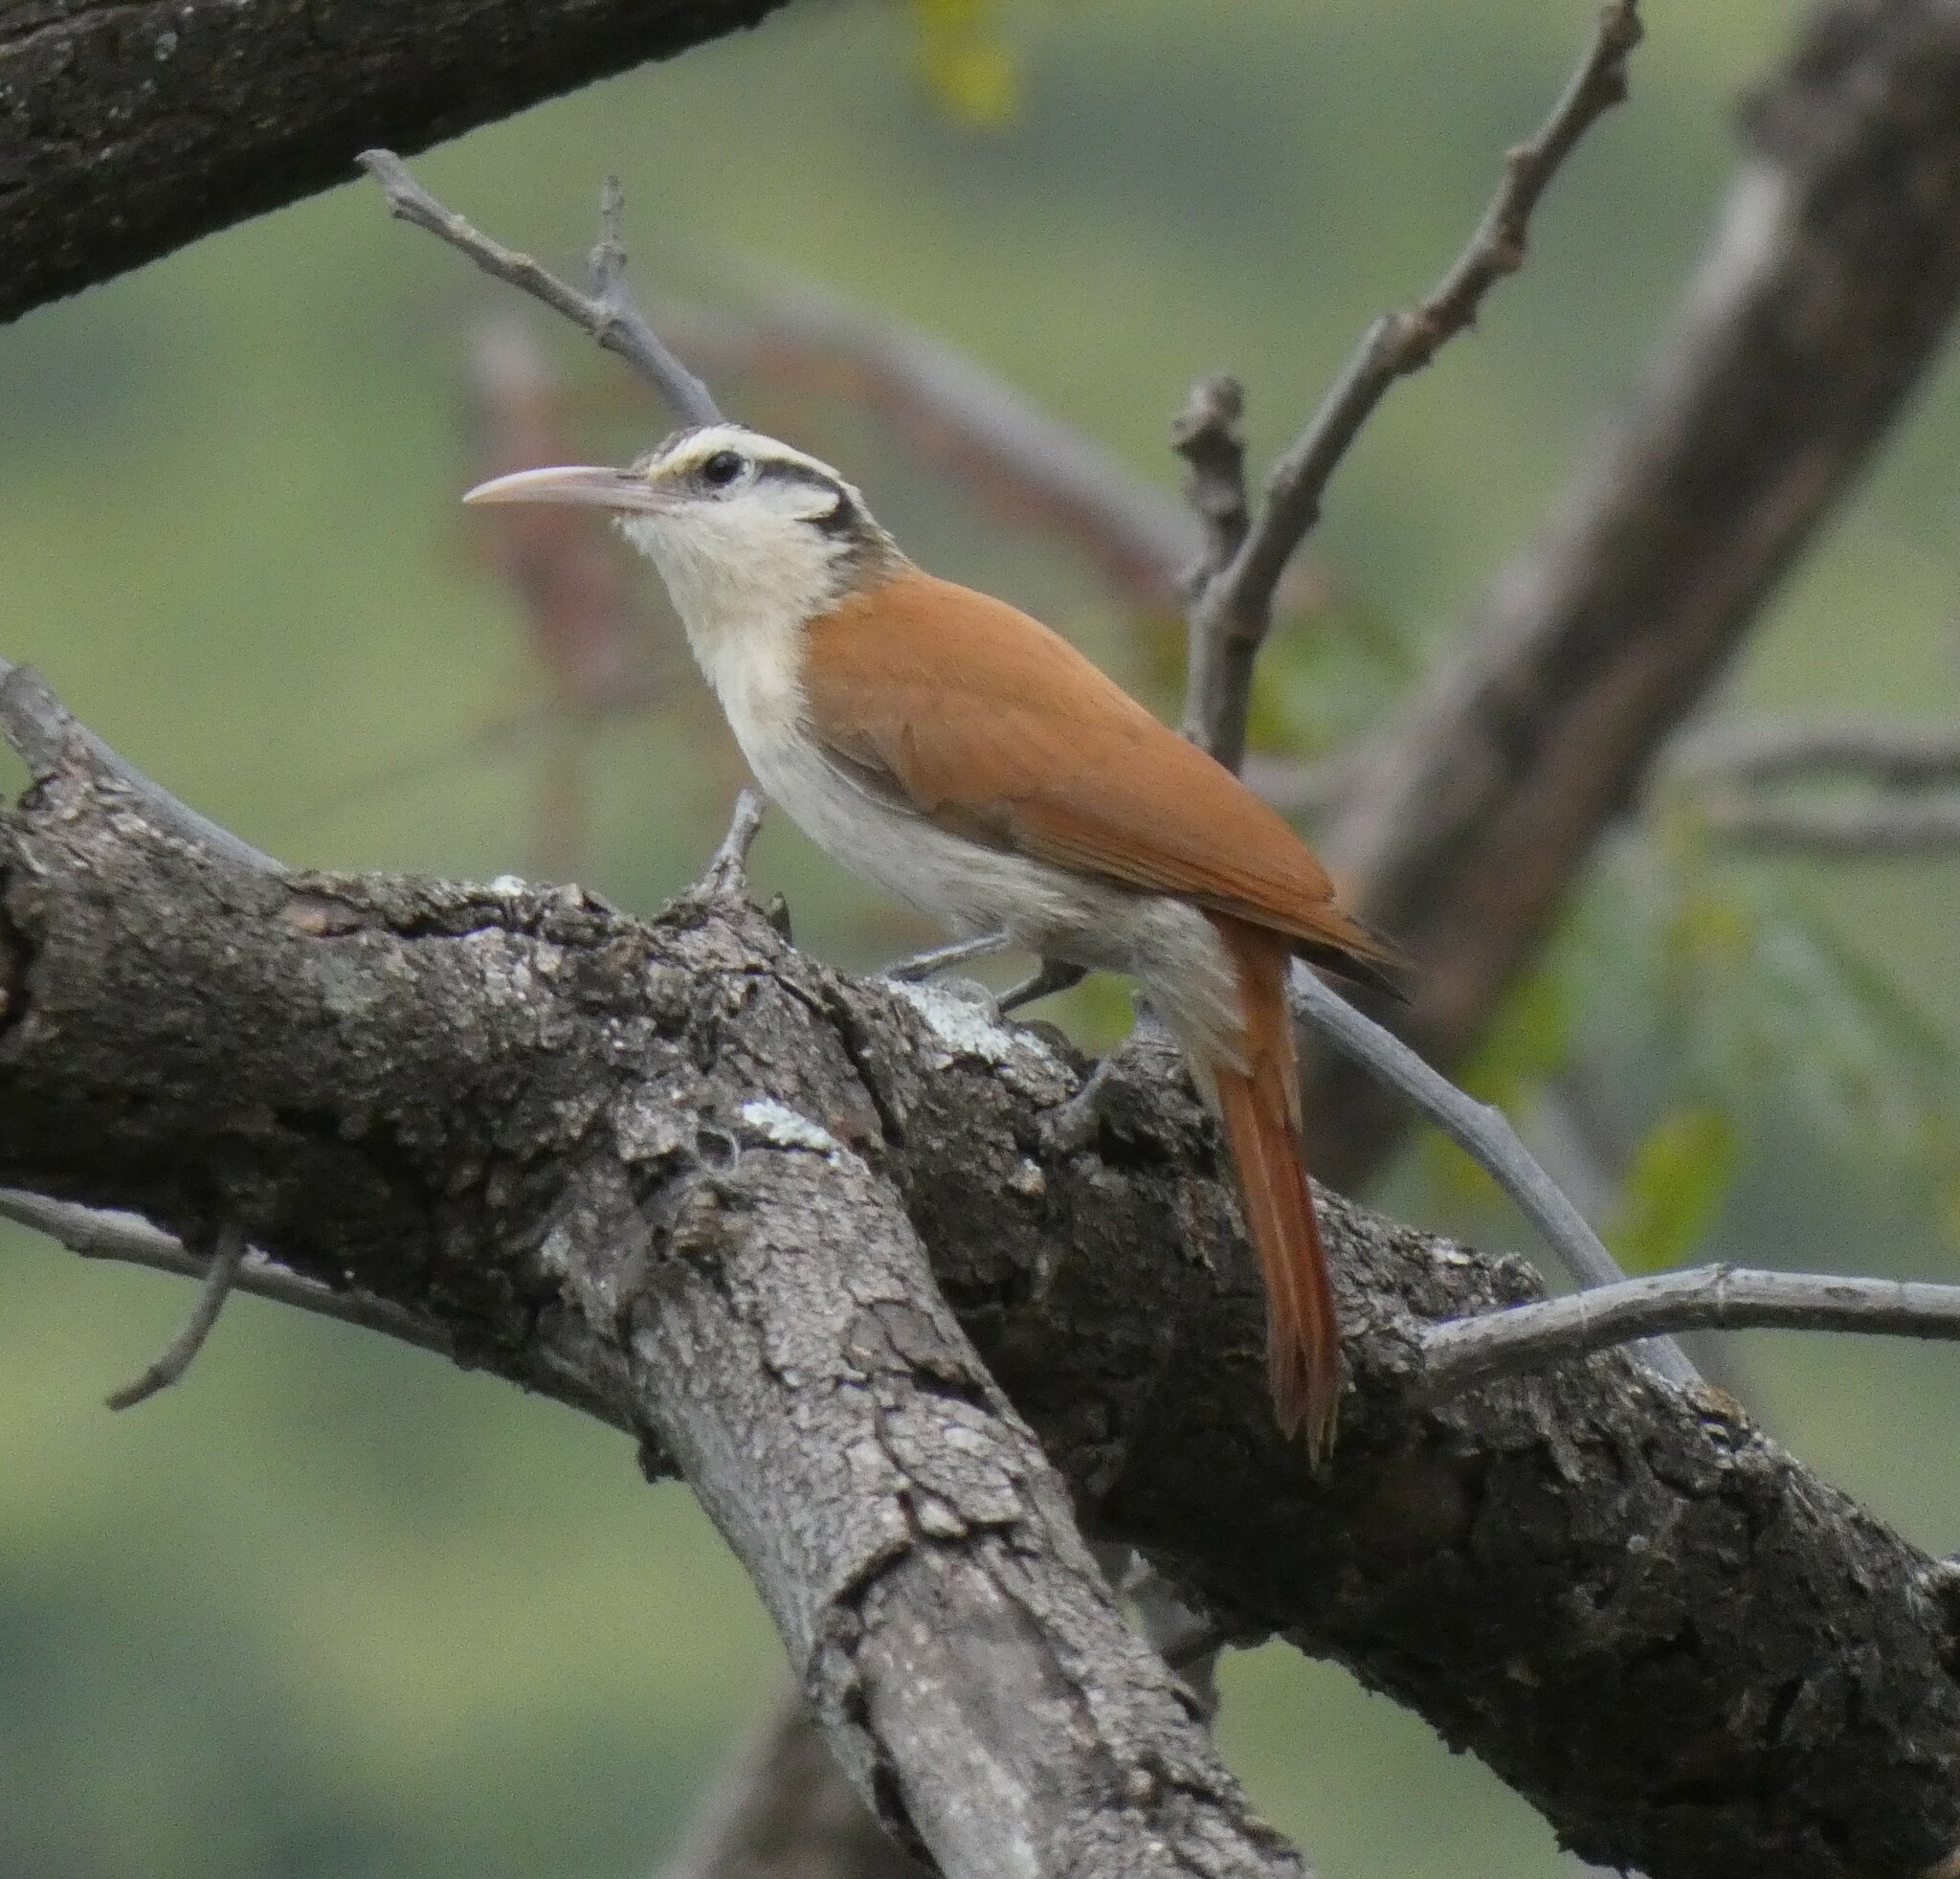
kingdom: Animalia
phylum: Chordata
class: Aves
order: Passeriformes
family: Furnariidae
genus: Lepidocolaptes
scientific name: Lepidocolaptes angustirostris
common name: Narrow-billed woodcreeper
